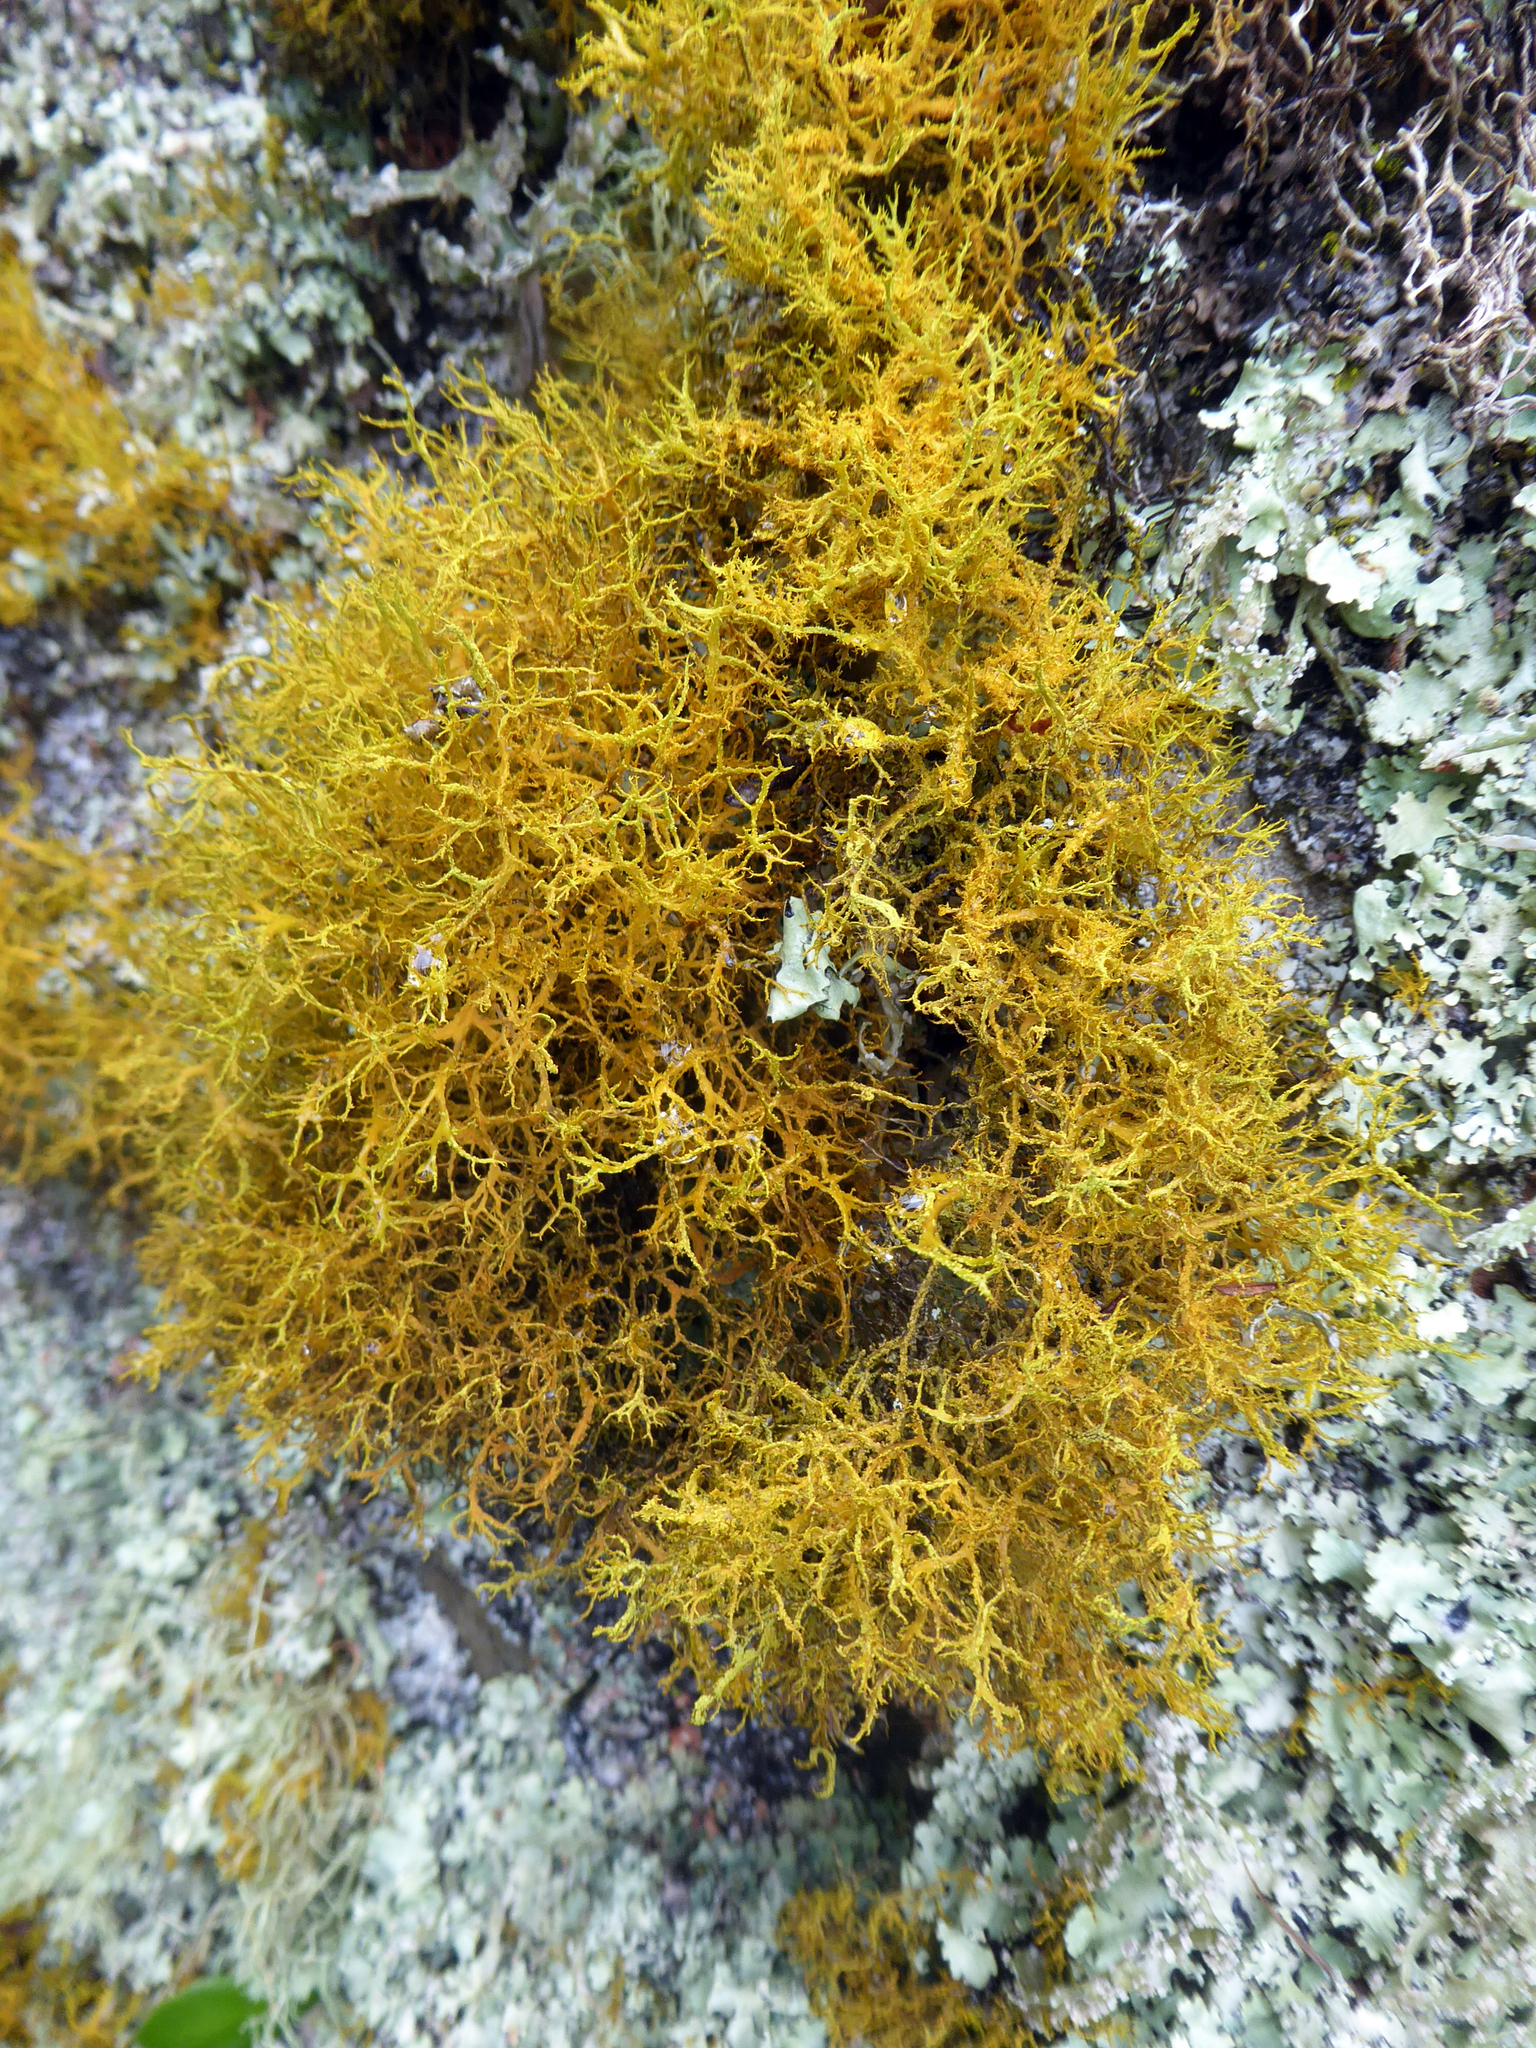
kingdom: Fungi
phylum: Ascomycota
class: Lecanoromycetes
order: Teloschistales
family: Teloschistaceae
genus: Teloschistes
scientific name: Teloschistes flavicans
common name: Golden hair-lichen
